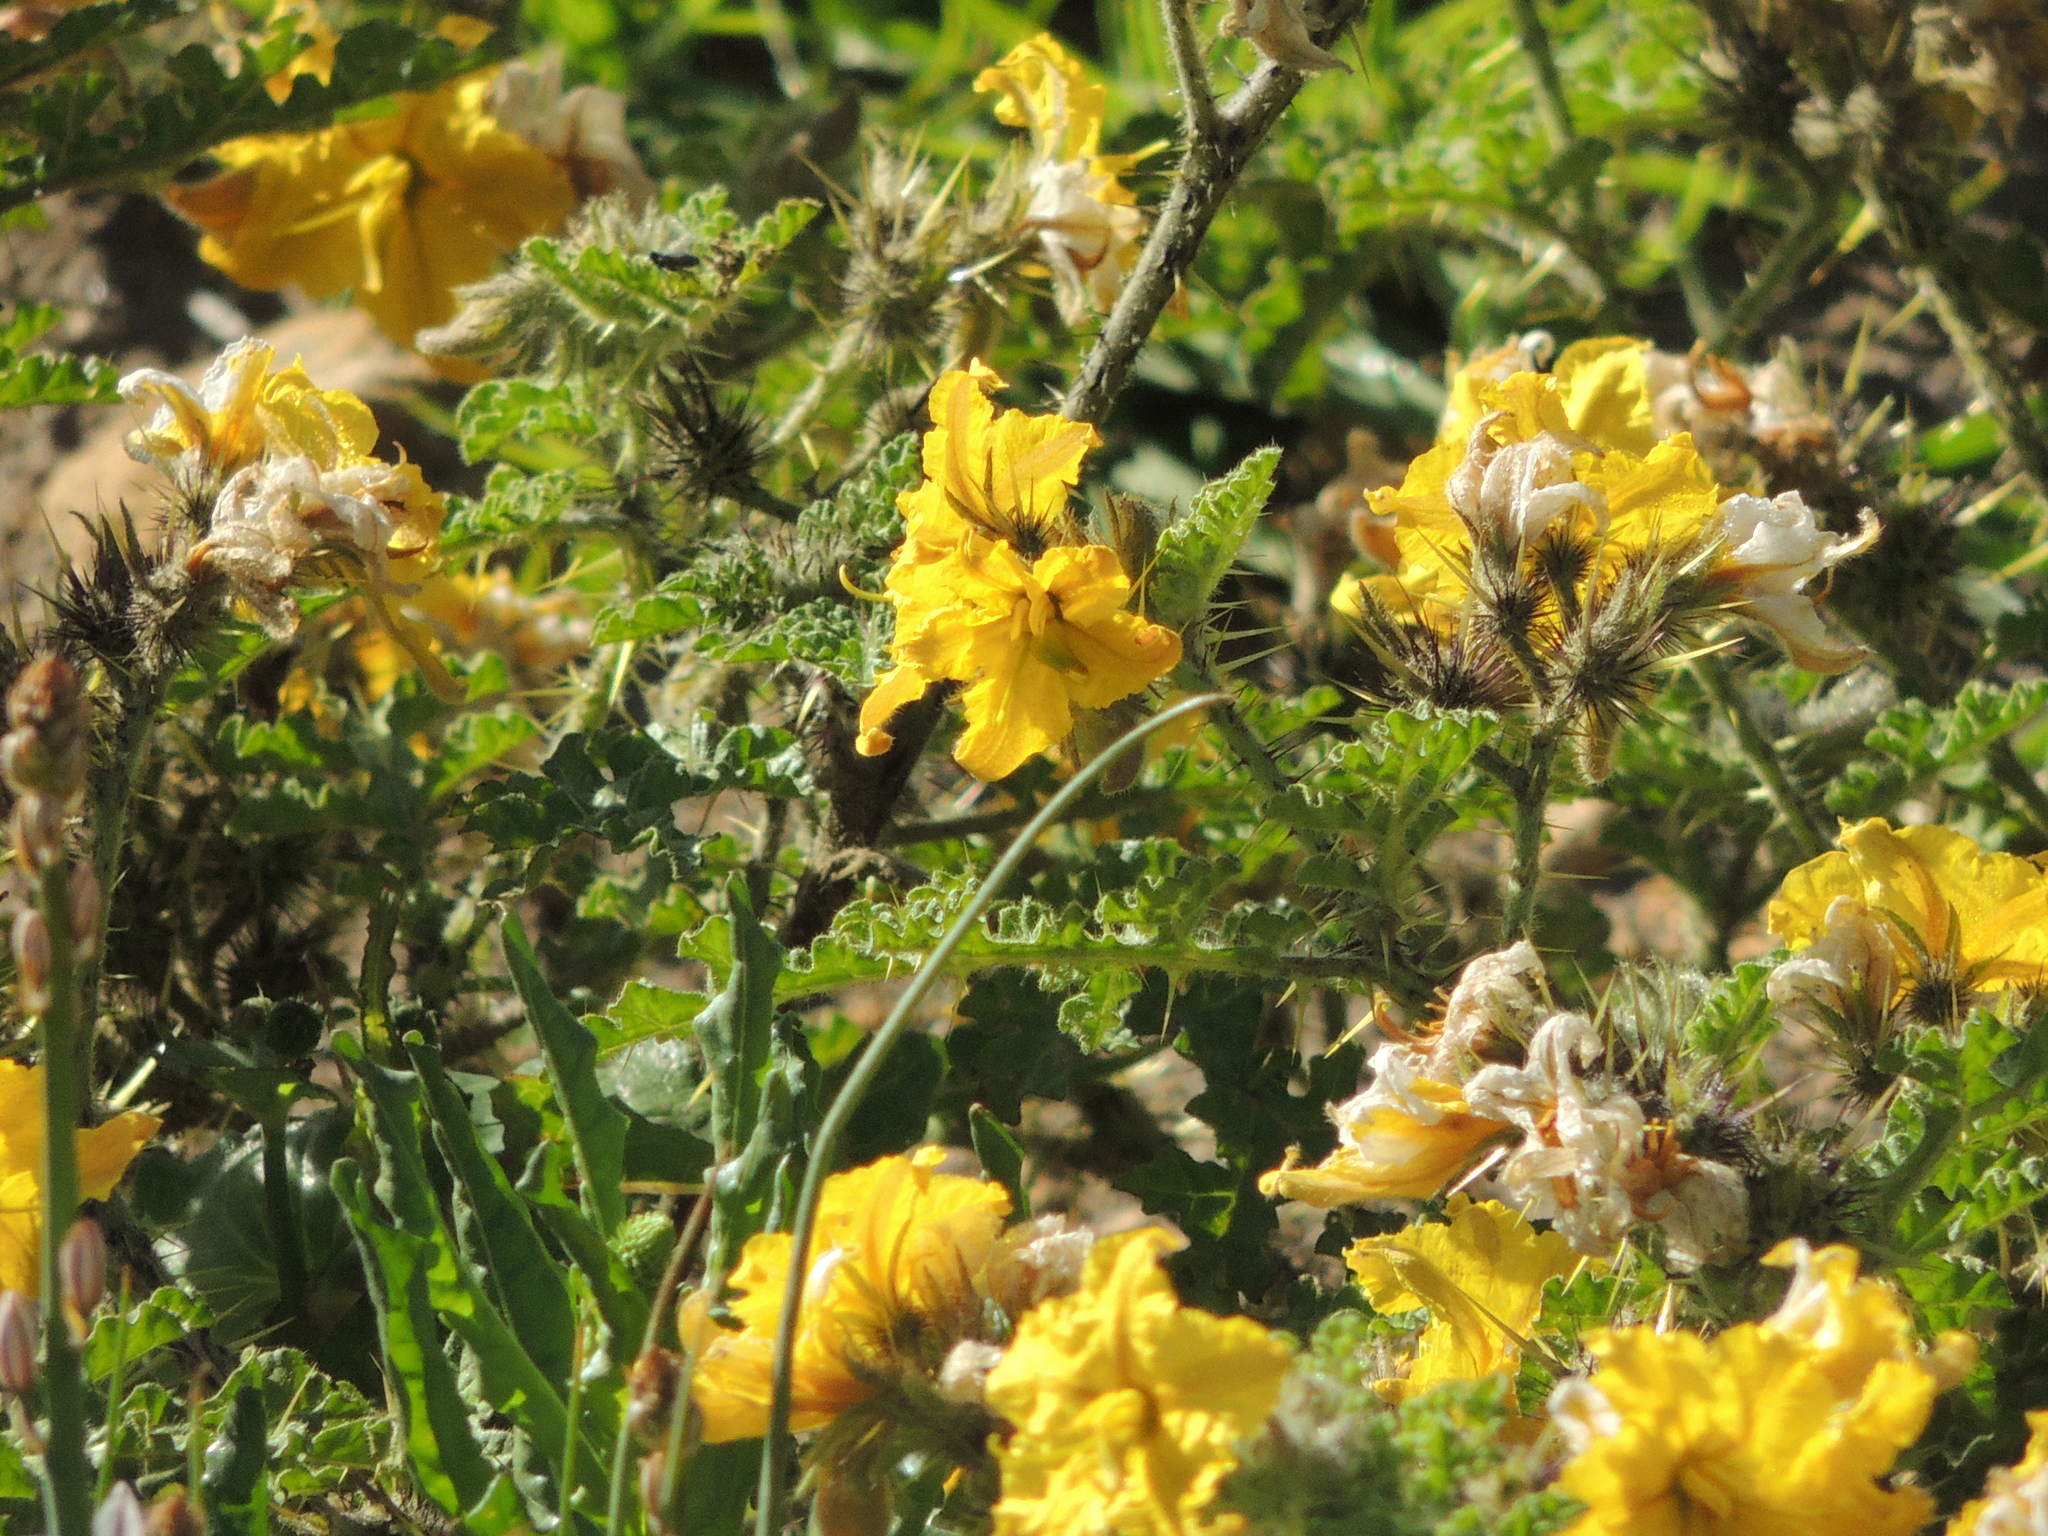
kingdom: Plantae
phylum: Tracheophyta
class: Magnoliopsida
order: Solanales
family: Solanaceae
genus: Solanum
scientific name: Solanum angustifolium
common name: Buffalobur nightshade
